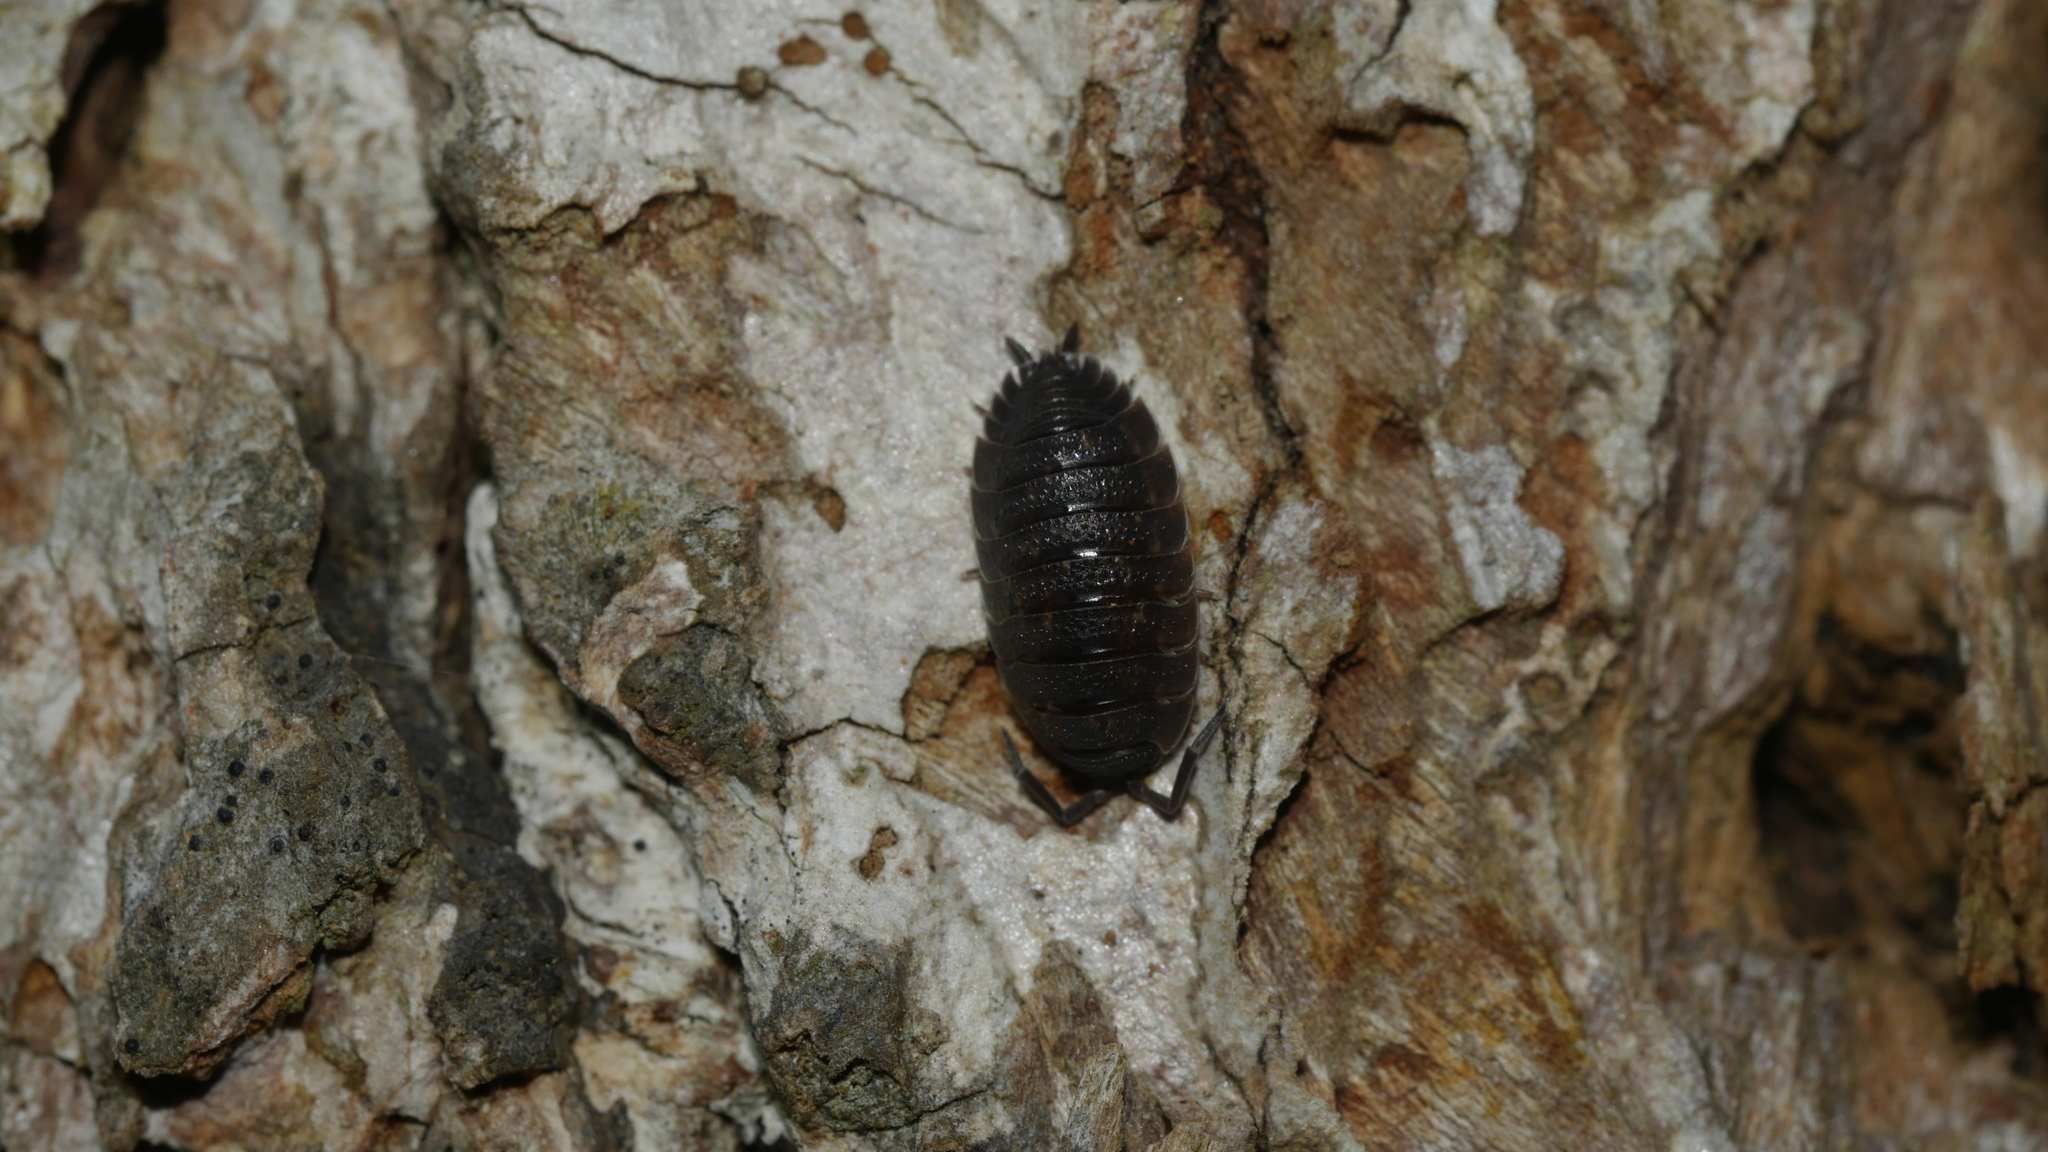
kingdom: Animalia
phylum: Arthropoda
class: Malacostraca
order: Isopoda
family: Porcellionidae
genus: Porcellio
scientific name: Porcellio scaber
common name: Common rough woodlouse
